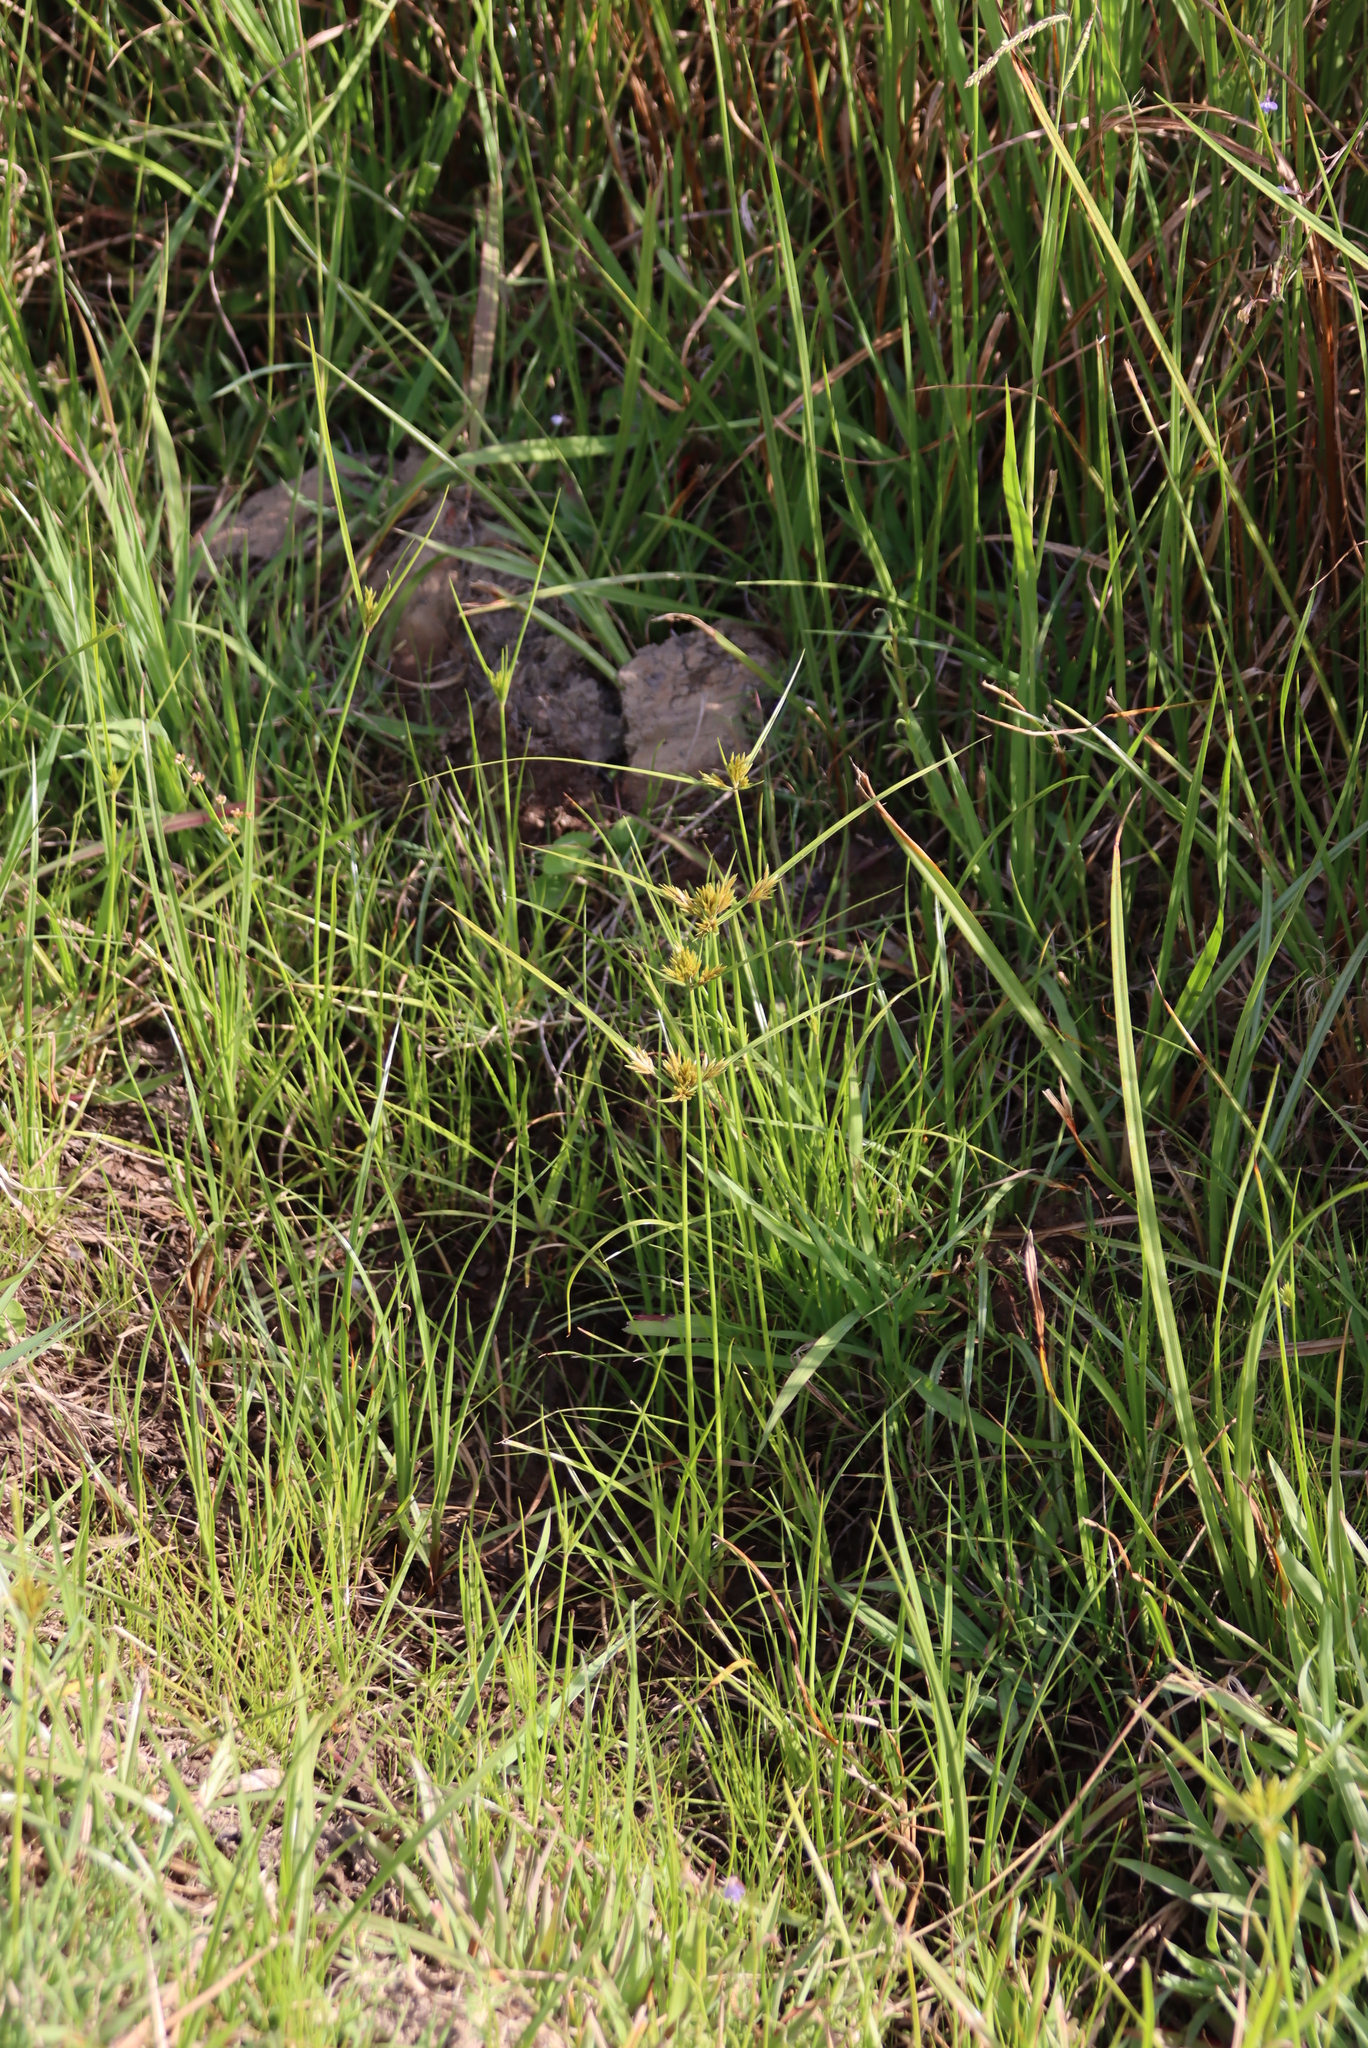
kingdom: Plantae
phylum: Tracheophyta
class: Liliopsida
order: Poales
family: Cyperaceae
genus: Cyperus
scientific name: Cyperus polystachyos
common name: Bunchy flat sedge
